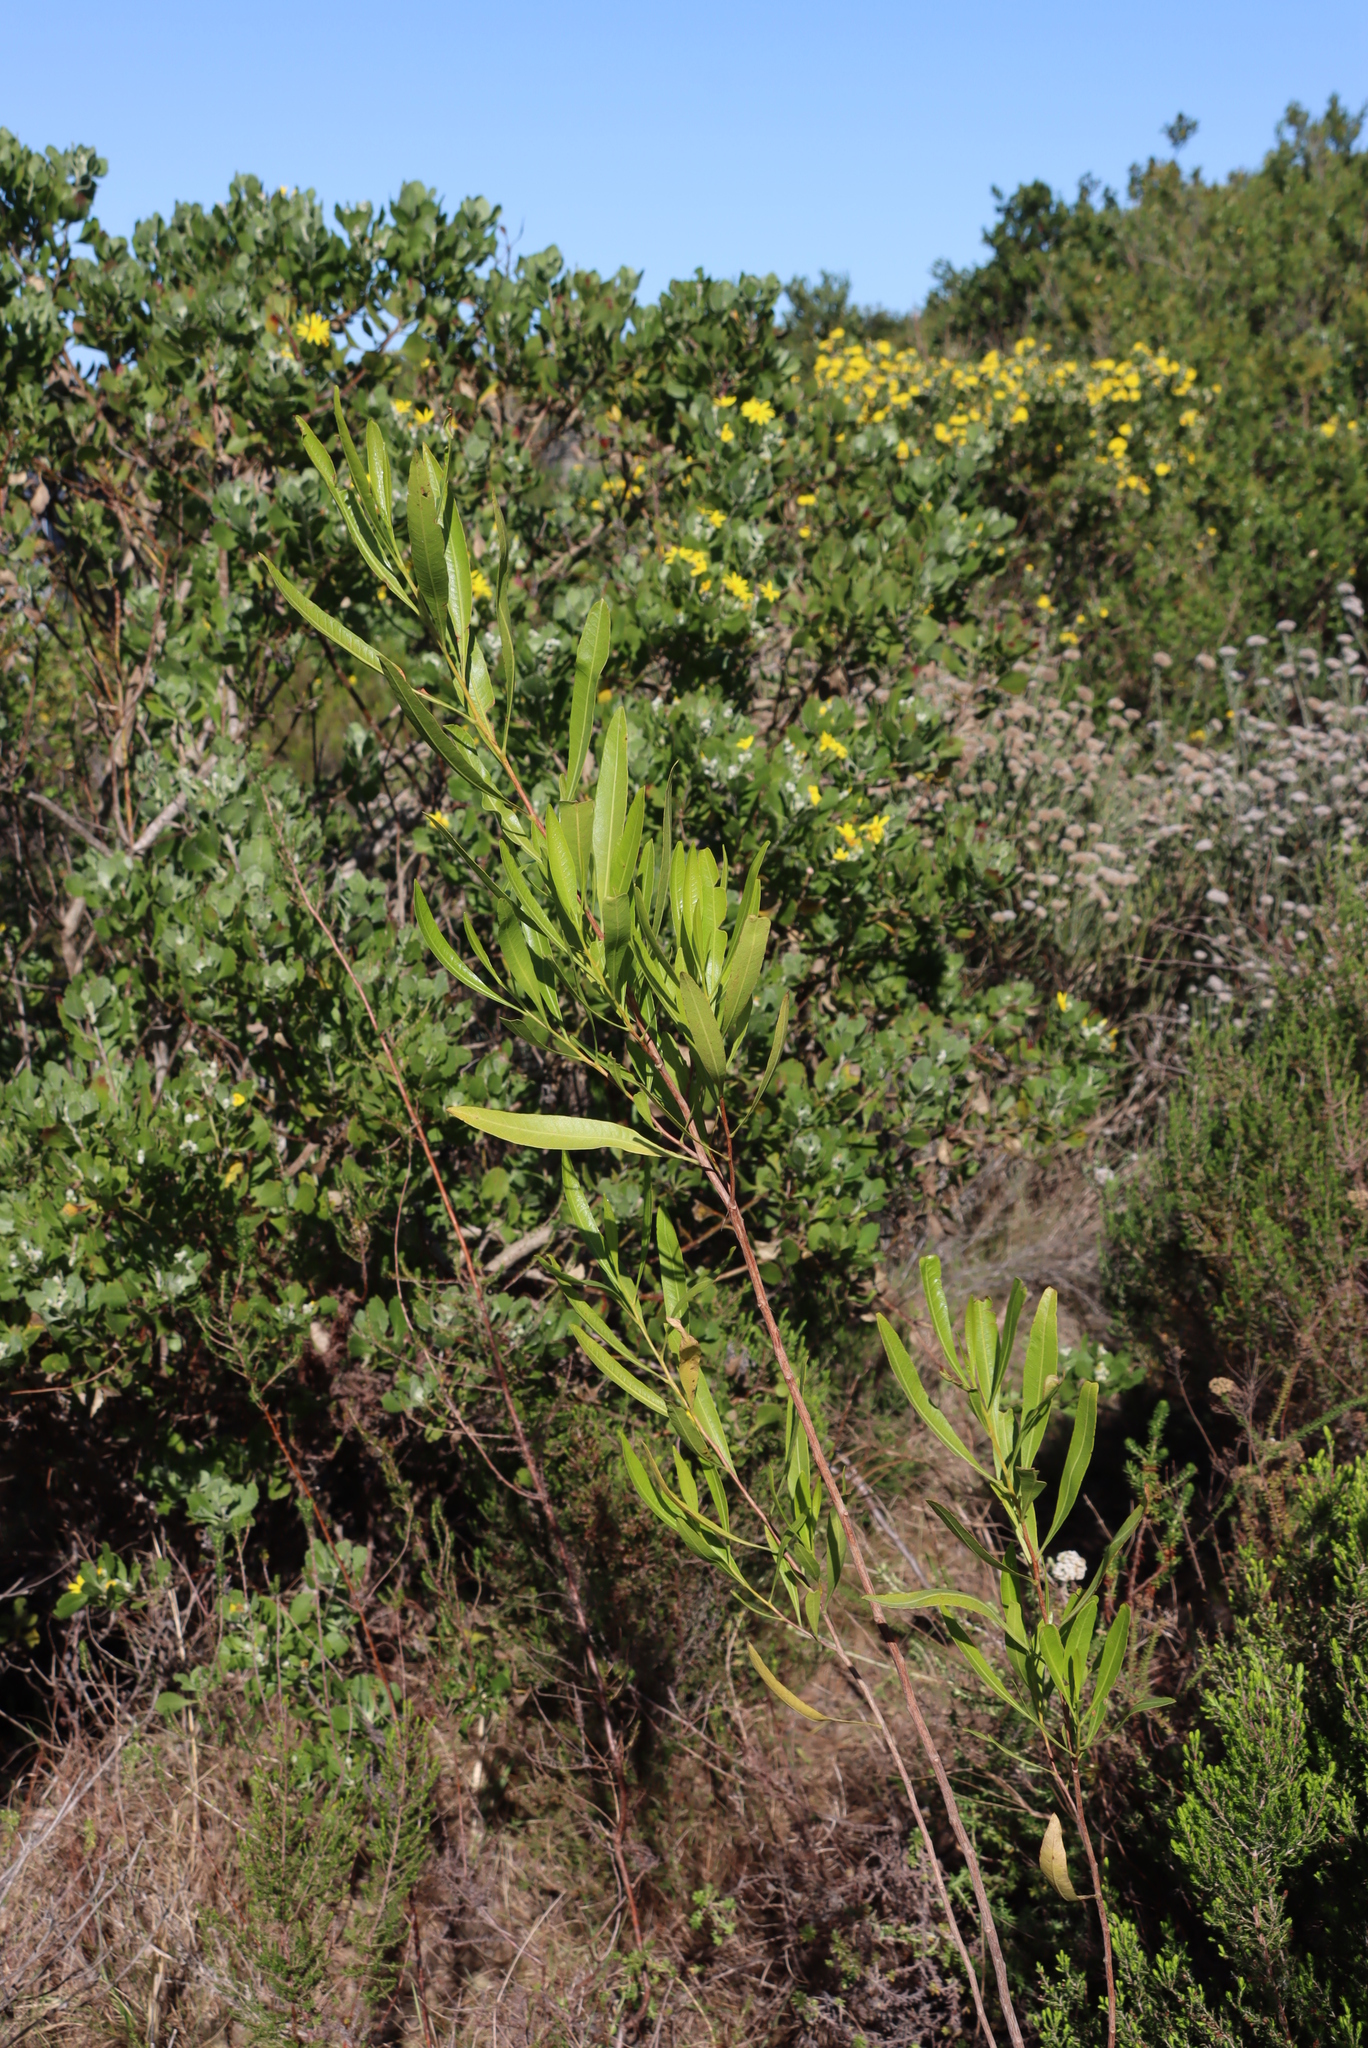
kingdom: Plantae
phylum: Tracheophyta
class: Magnoliopsida
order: Sapindales
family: Sapindaceae
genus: Dodonaea
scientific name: Dodonaea viscosa
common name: Hopbush
